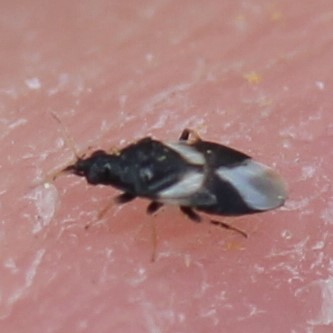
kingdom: Animalia
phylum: Arthropoda
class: Insecta
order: Hemiptera
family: Anthocoridae
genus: Orius
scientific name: Orius tristicolor
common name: Minute pirate bug
